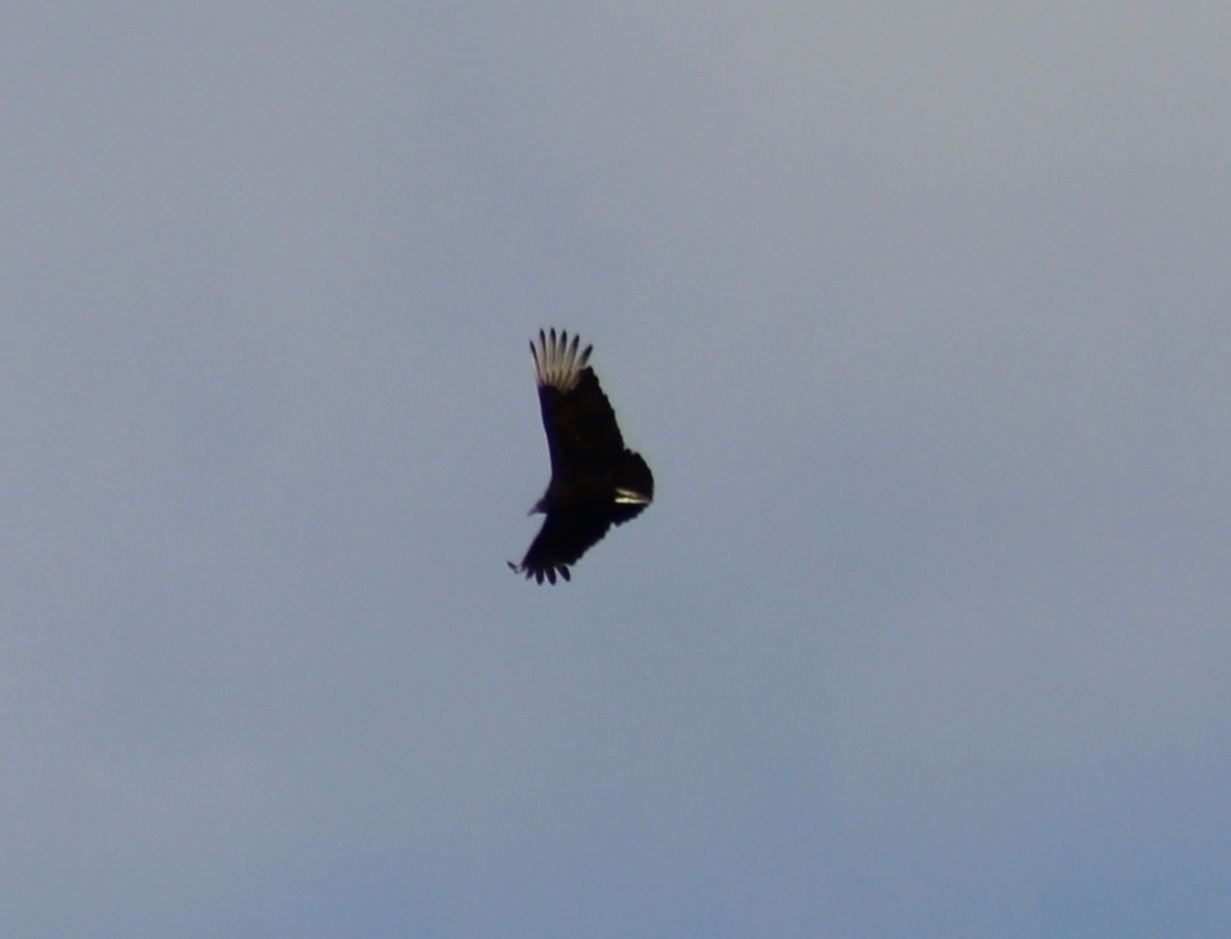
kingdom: Animalia
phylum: Chordata
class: Aves
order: Accipitriformes
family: Cathartidae
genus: Coragyps
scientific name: Coragyps atratus
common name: Black vulture
